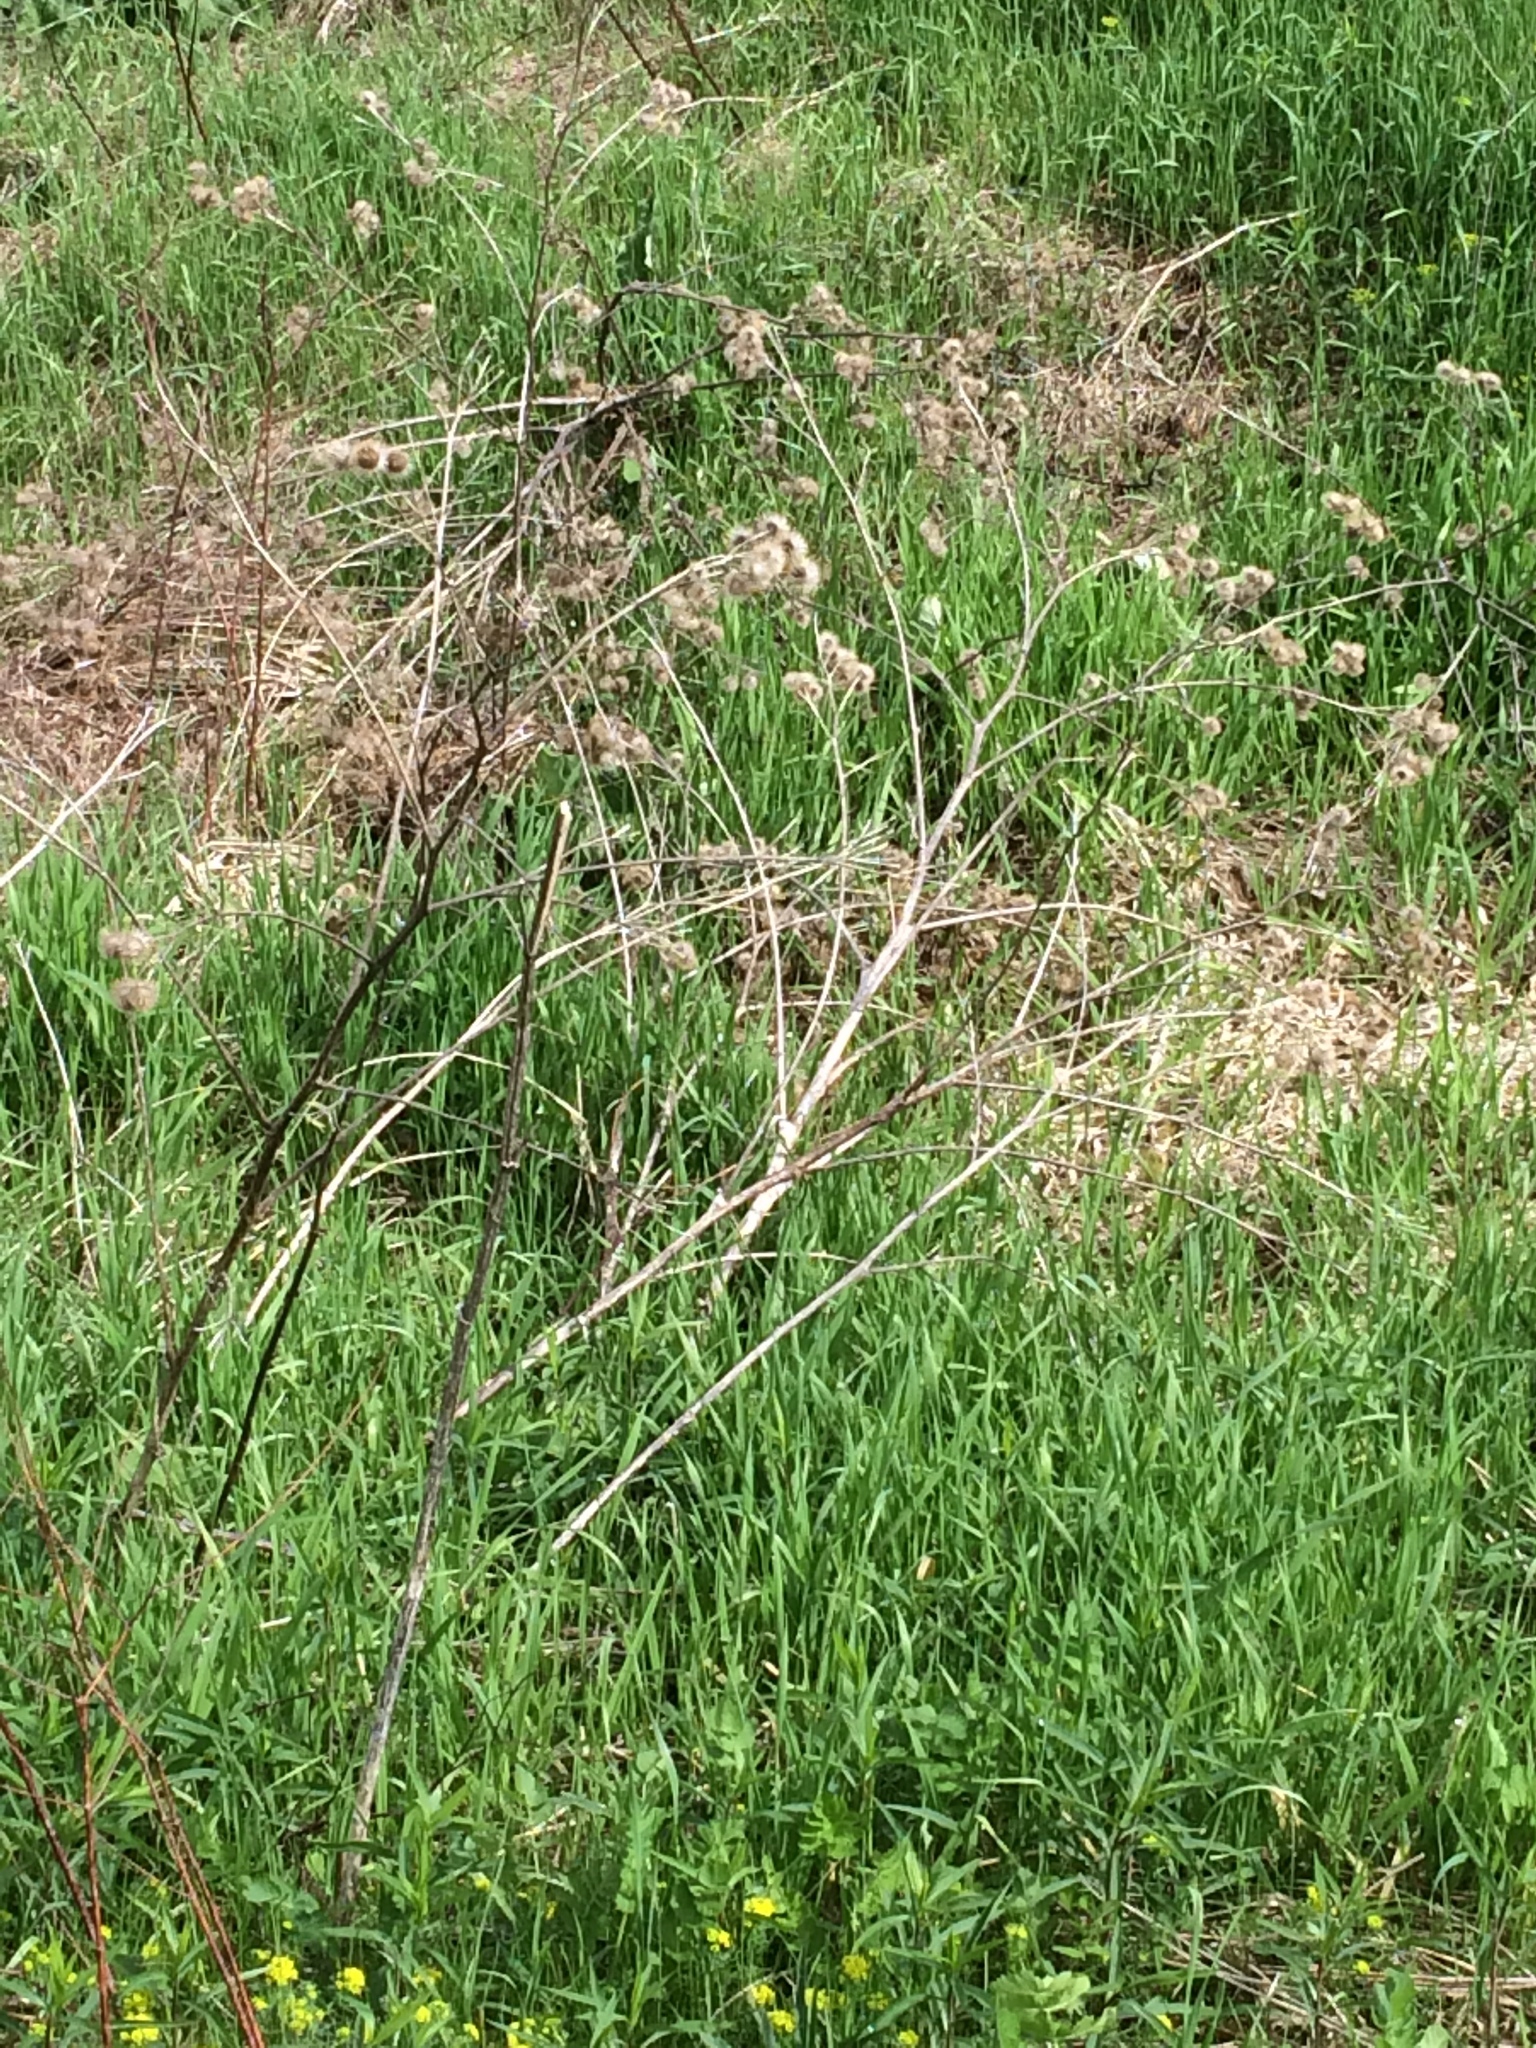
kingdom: Plantae
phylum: Tracheophyta
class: Magnoliopsida
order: Asterales
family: Asteraceae
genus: Arctium
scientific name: Arctium lappa
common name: Greater burdock
